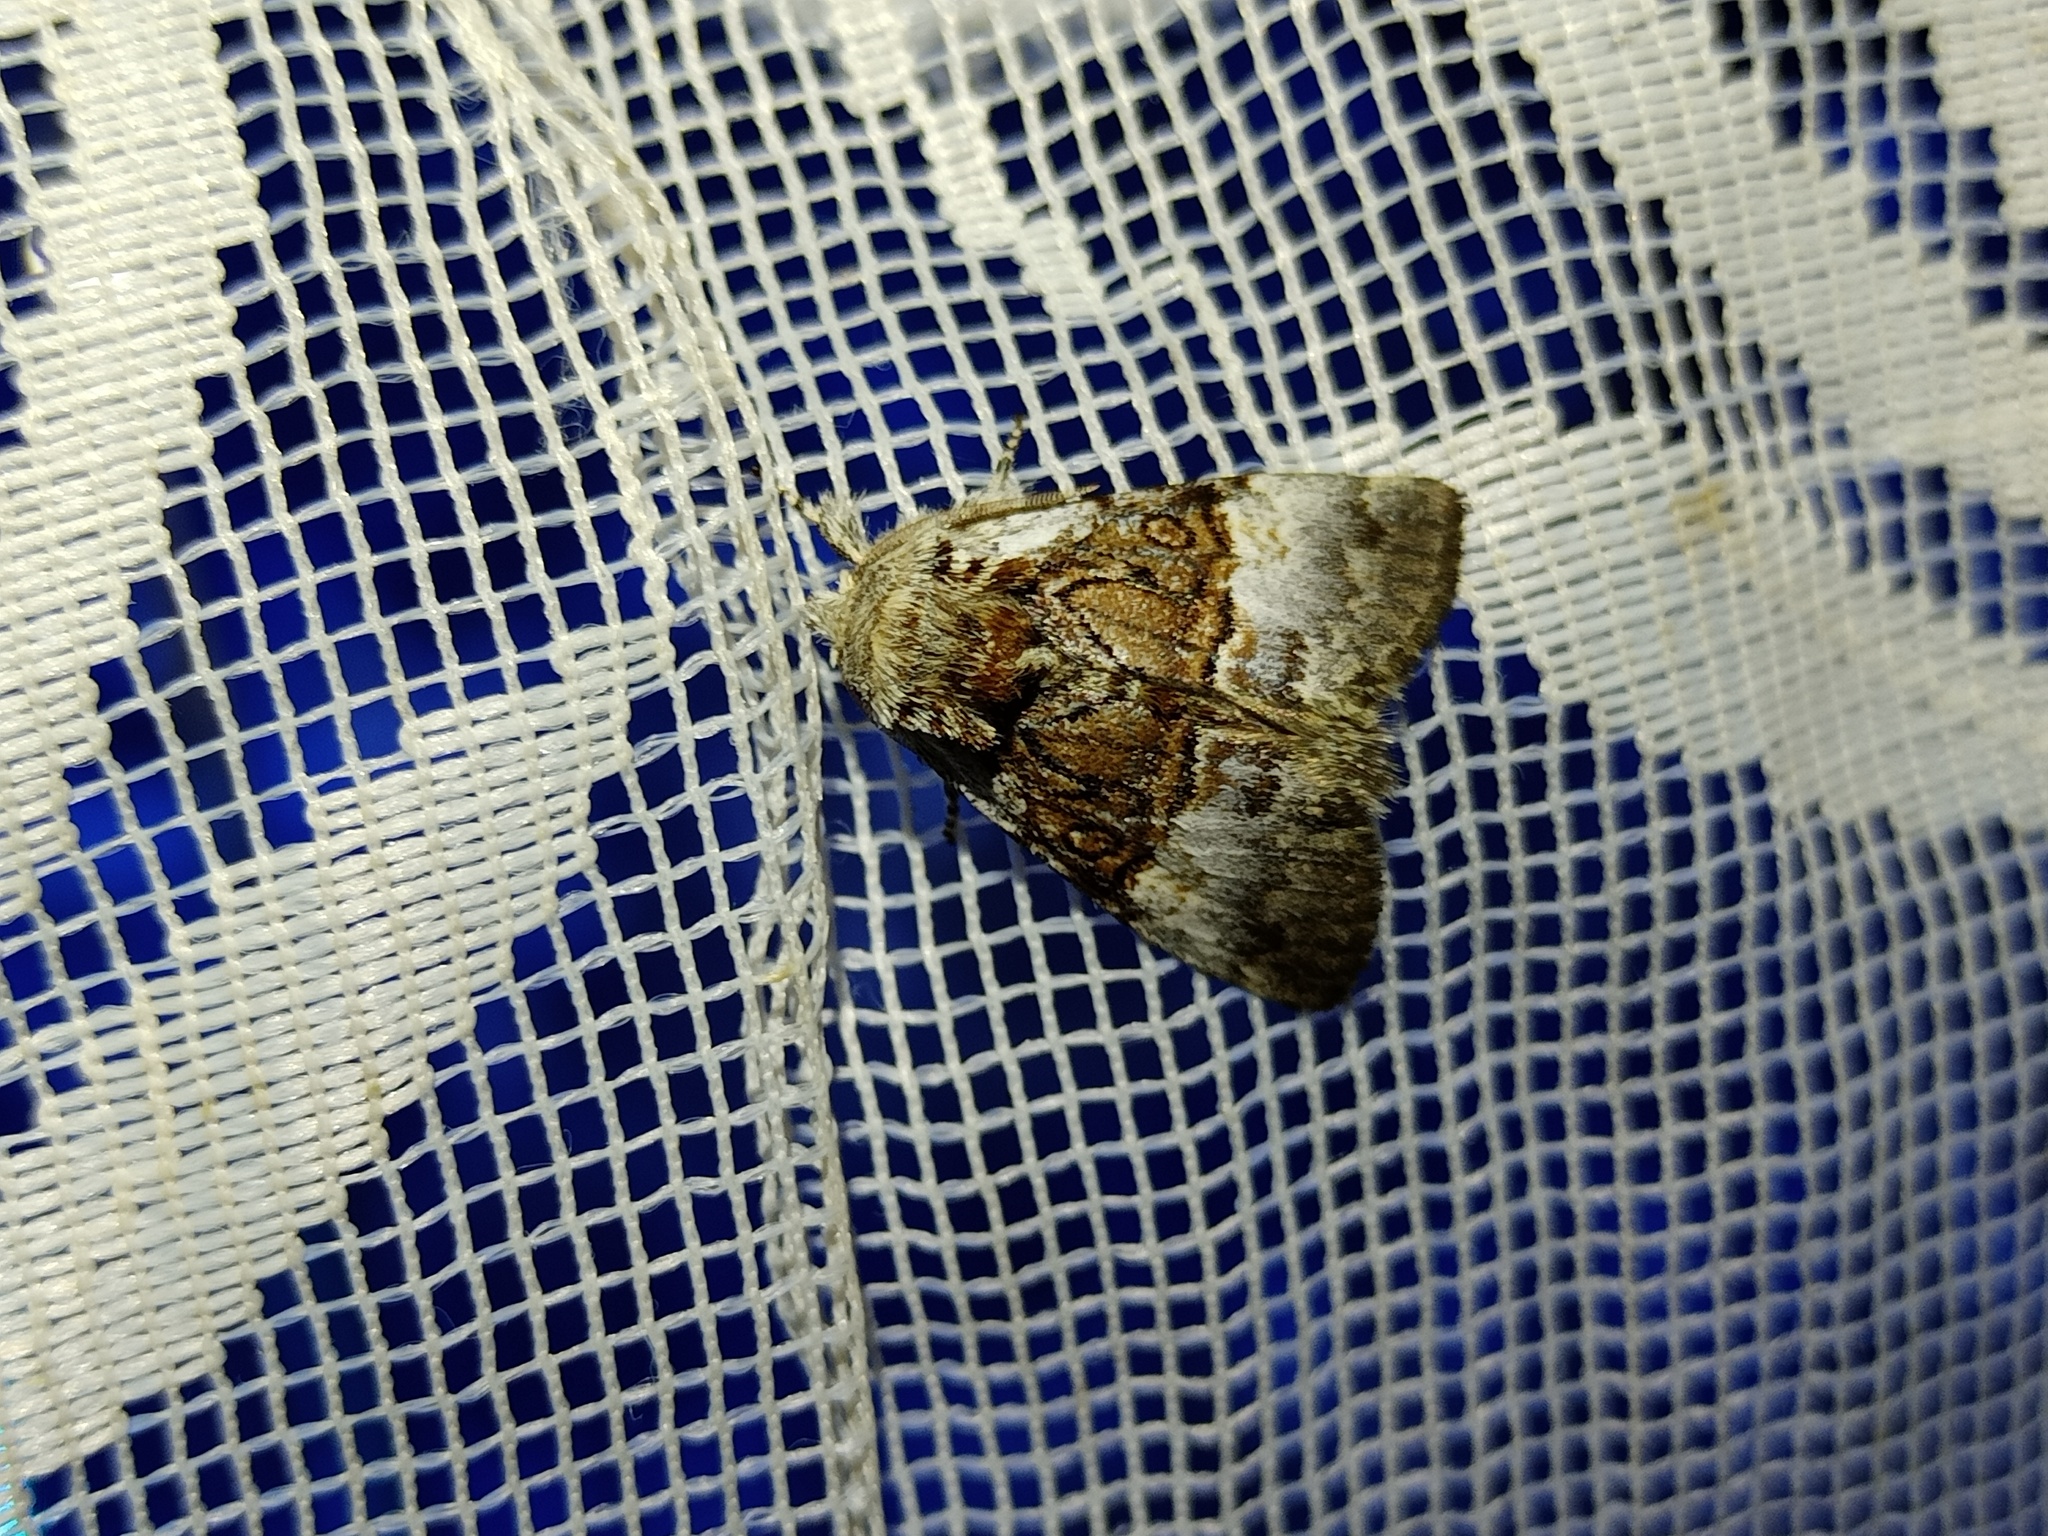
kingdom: Animalia
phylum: Arthropoda
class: Insecta
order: Lepidoptera
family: Noctuidae
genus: Colocasia
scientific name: Colocasia coryli
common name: Nut-tree tussock
